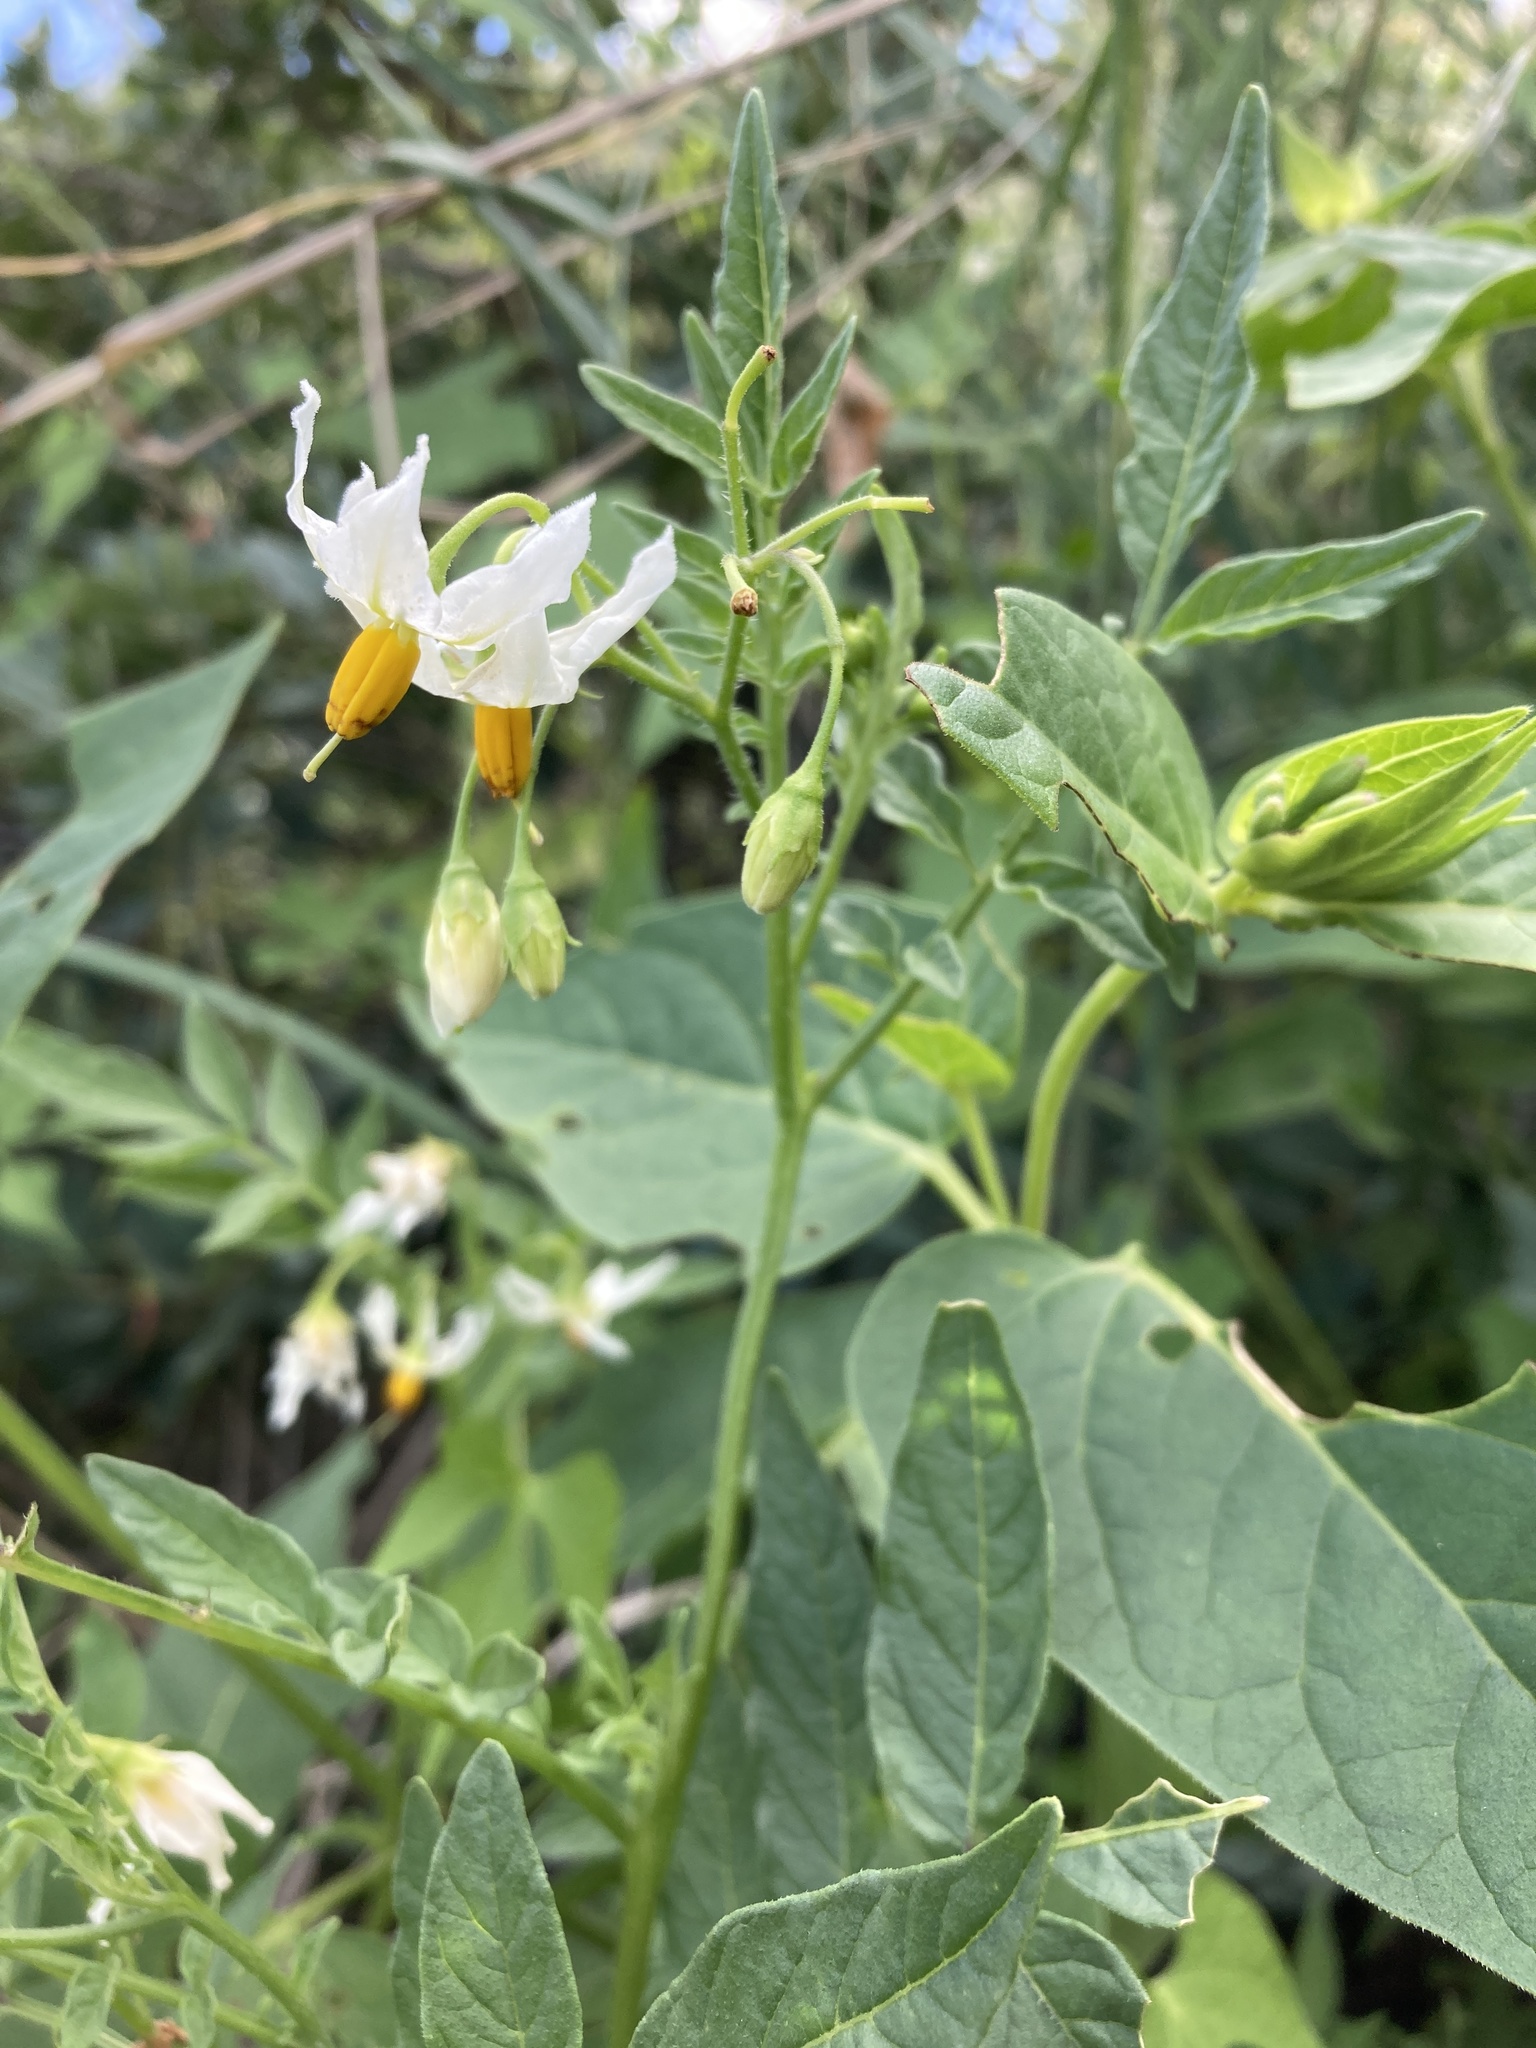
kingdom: Plantae
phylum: Tracheophyta
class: Magnoliopsida
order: Solanales
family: Solanaceae
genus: Solanum
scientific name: Solanum jamesii
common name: Wild potato
